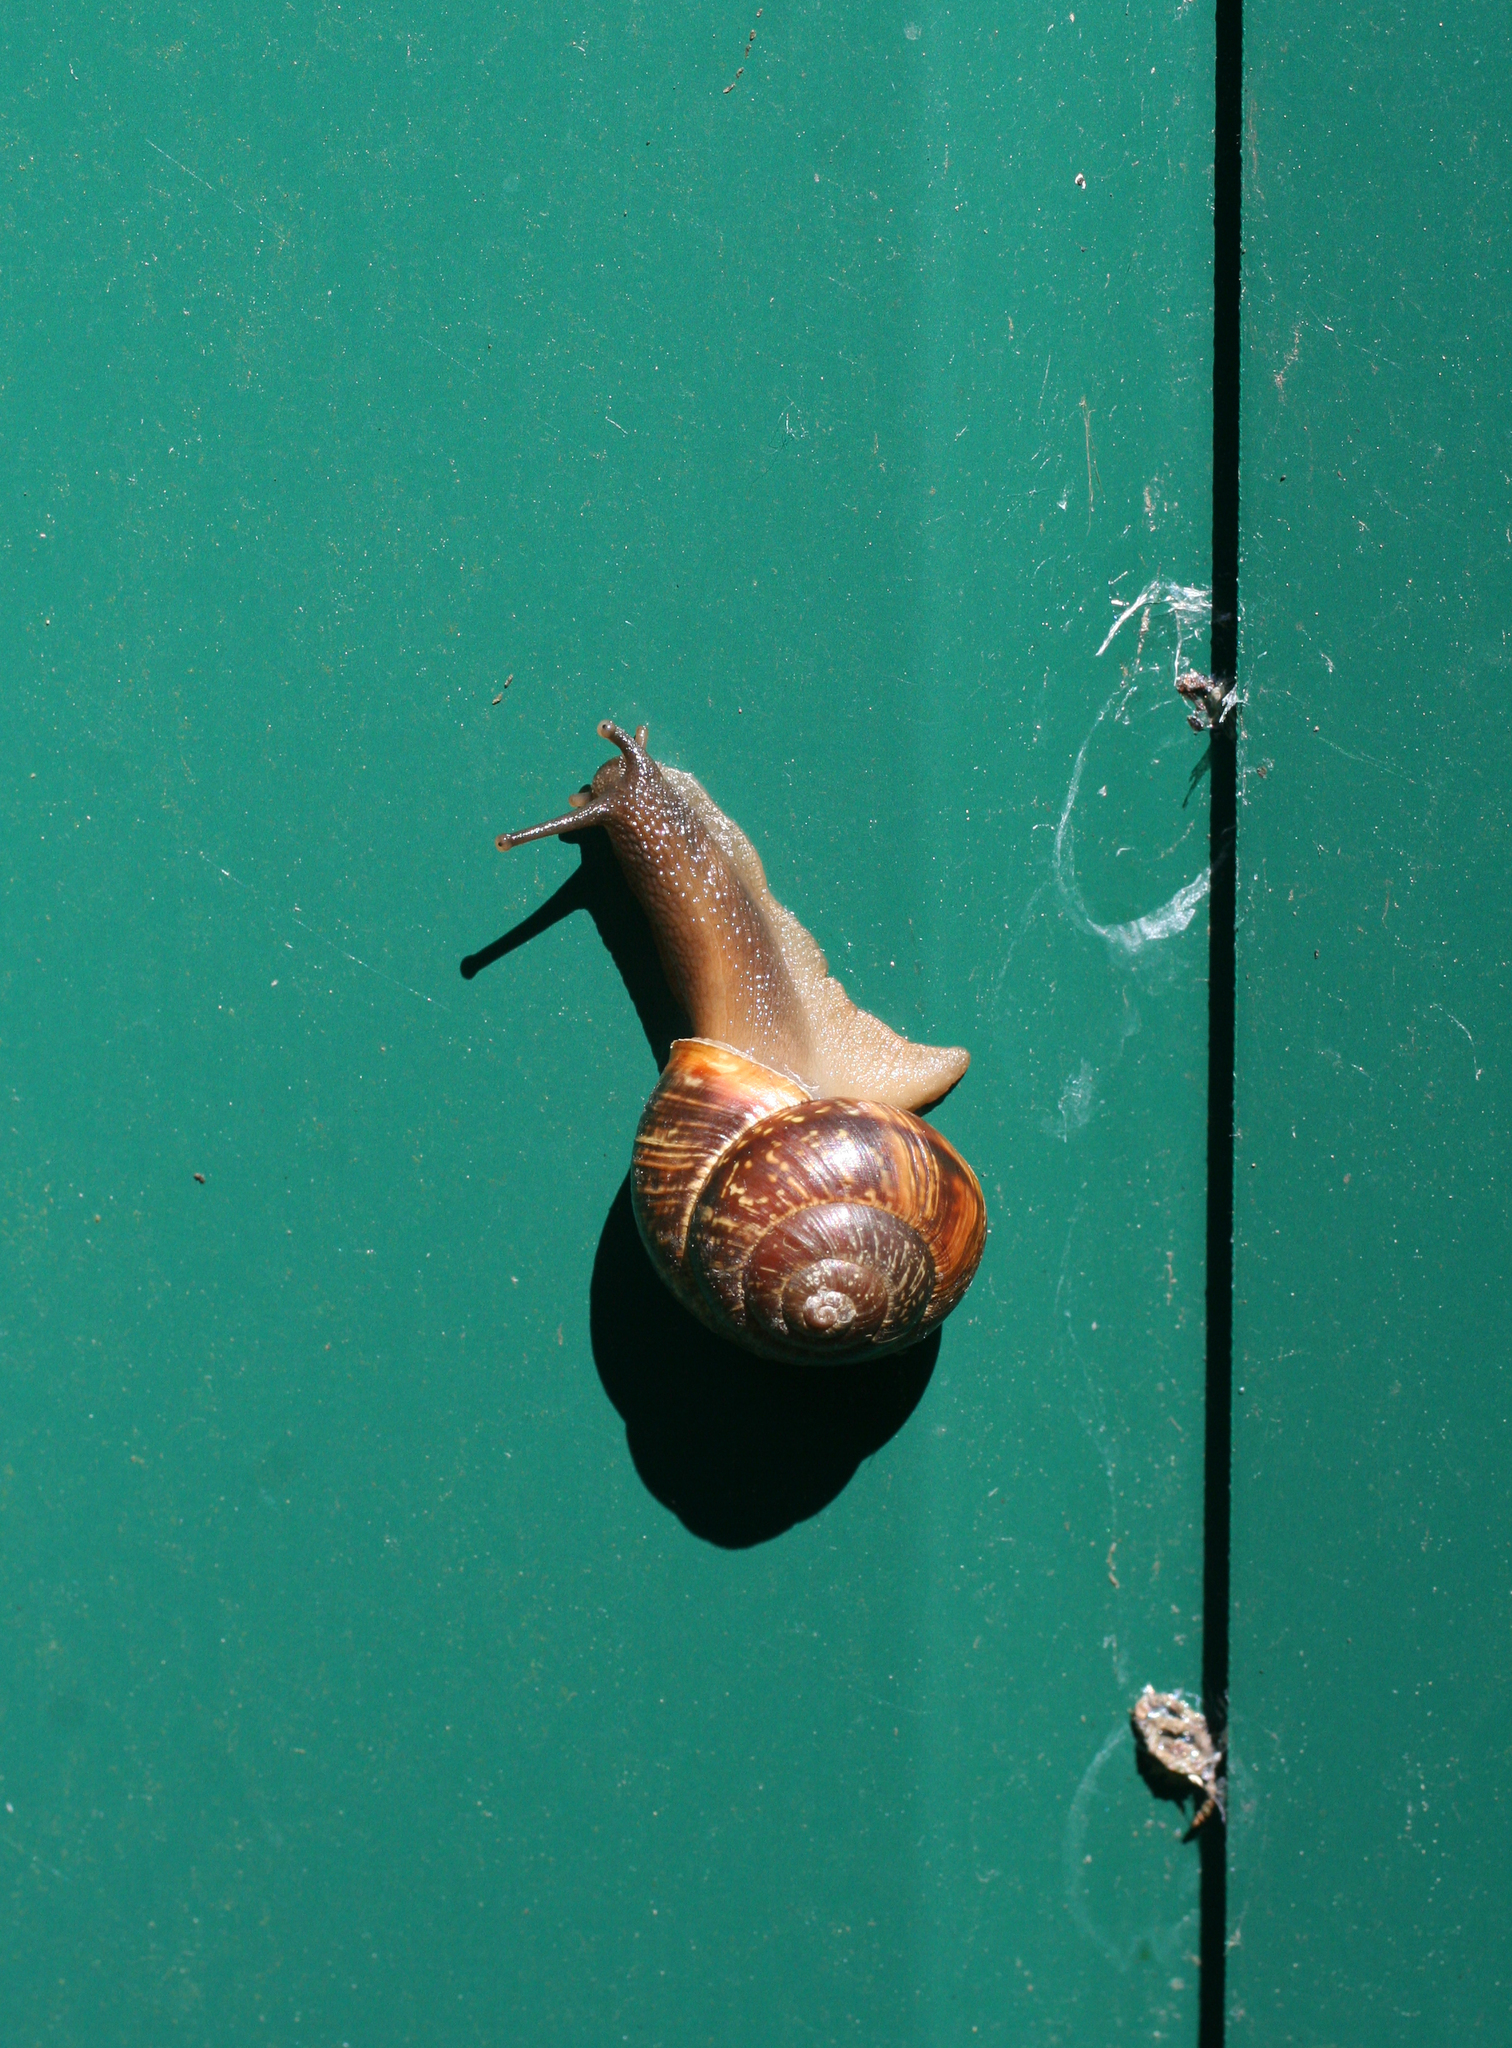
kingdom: Animalia
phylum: Mollusca
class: Gastropoda
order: Stylommatophora
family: Helicidae
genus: Arianta
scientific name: Arianta arbustorum
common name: Copse snail
